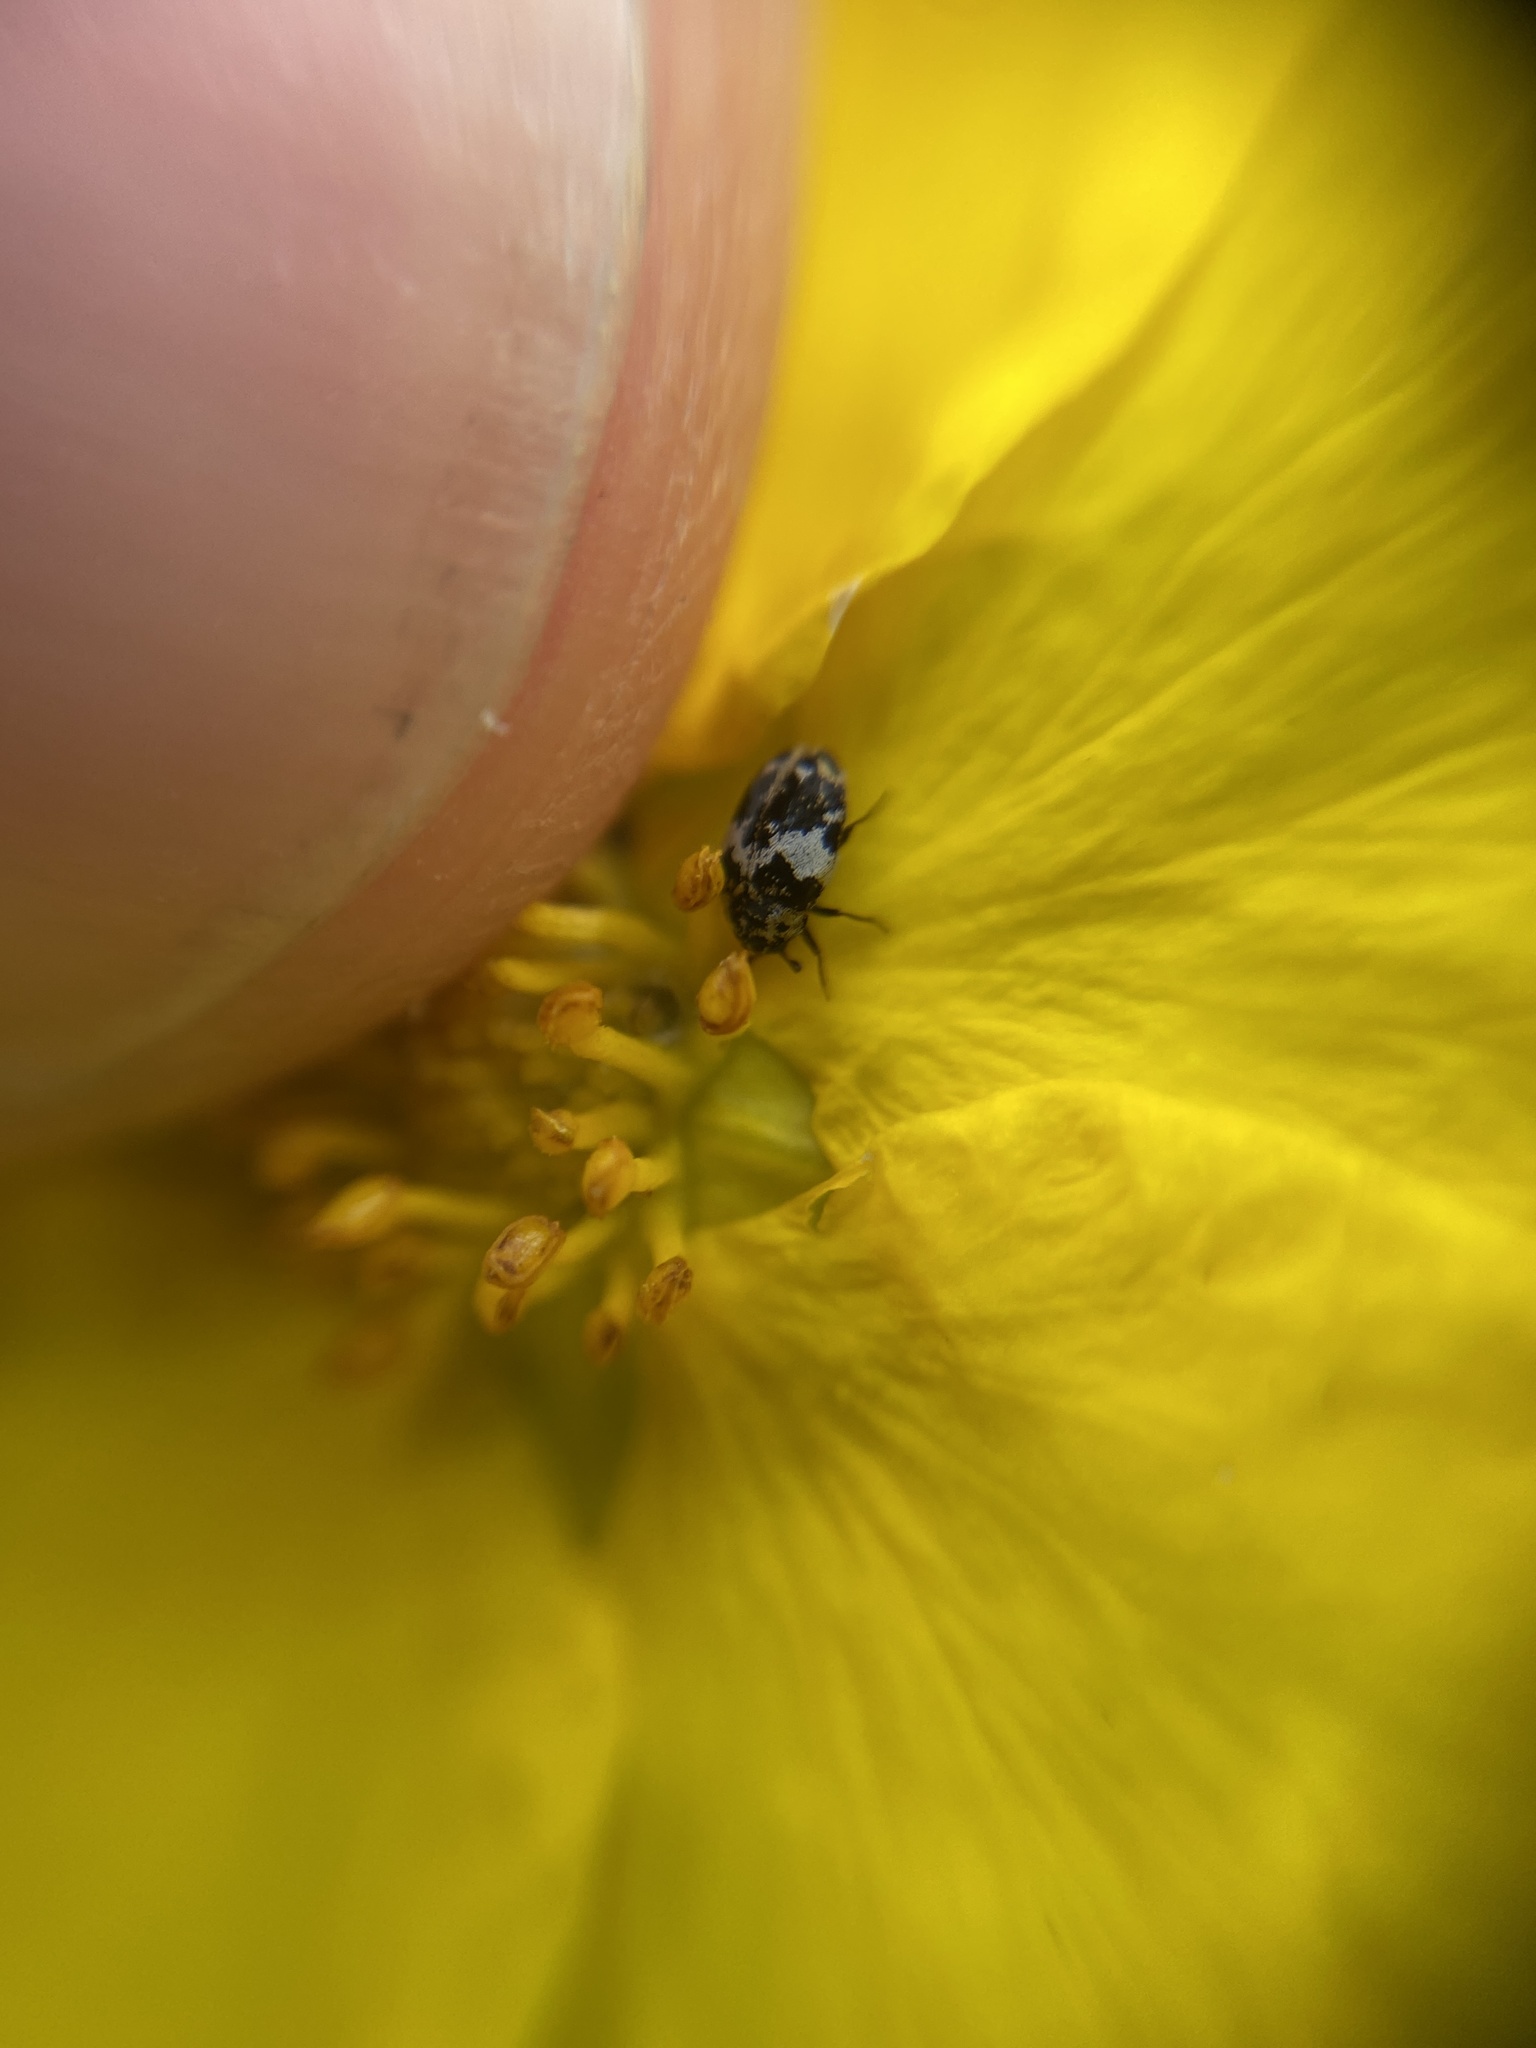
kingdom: Animalia
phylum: Arthropoda
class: Insecta
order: Coleoptera
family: Dermestidae
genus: Anthrenus
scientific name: Anthrenus pimpinellae
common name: Dermestid beetle
